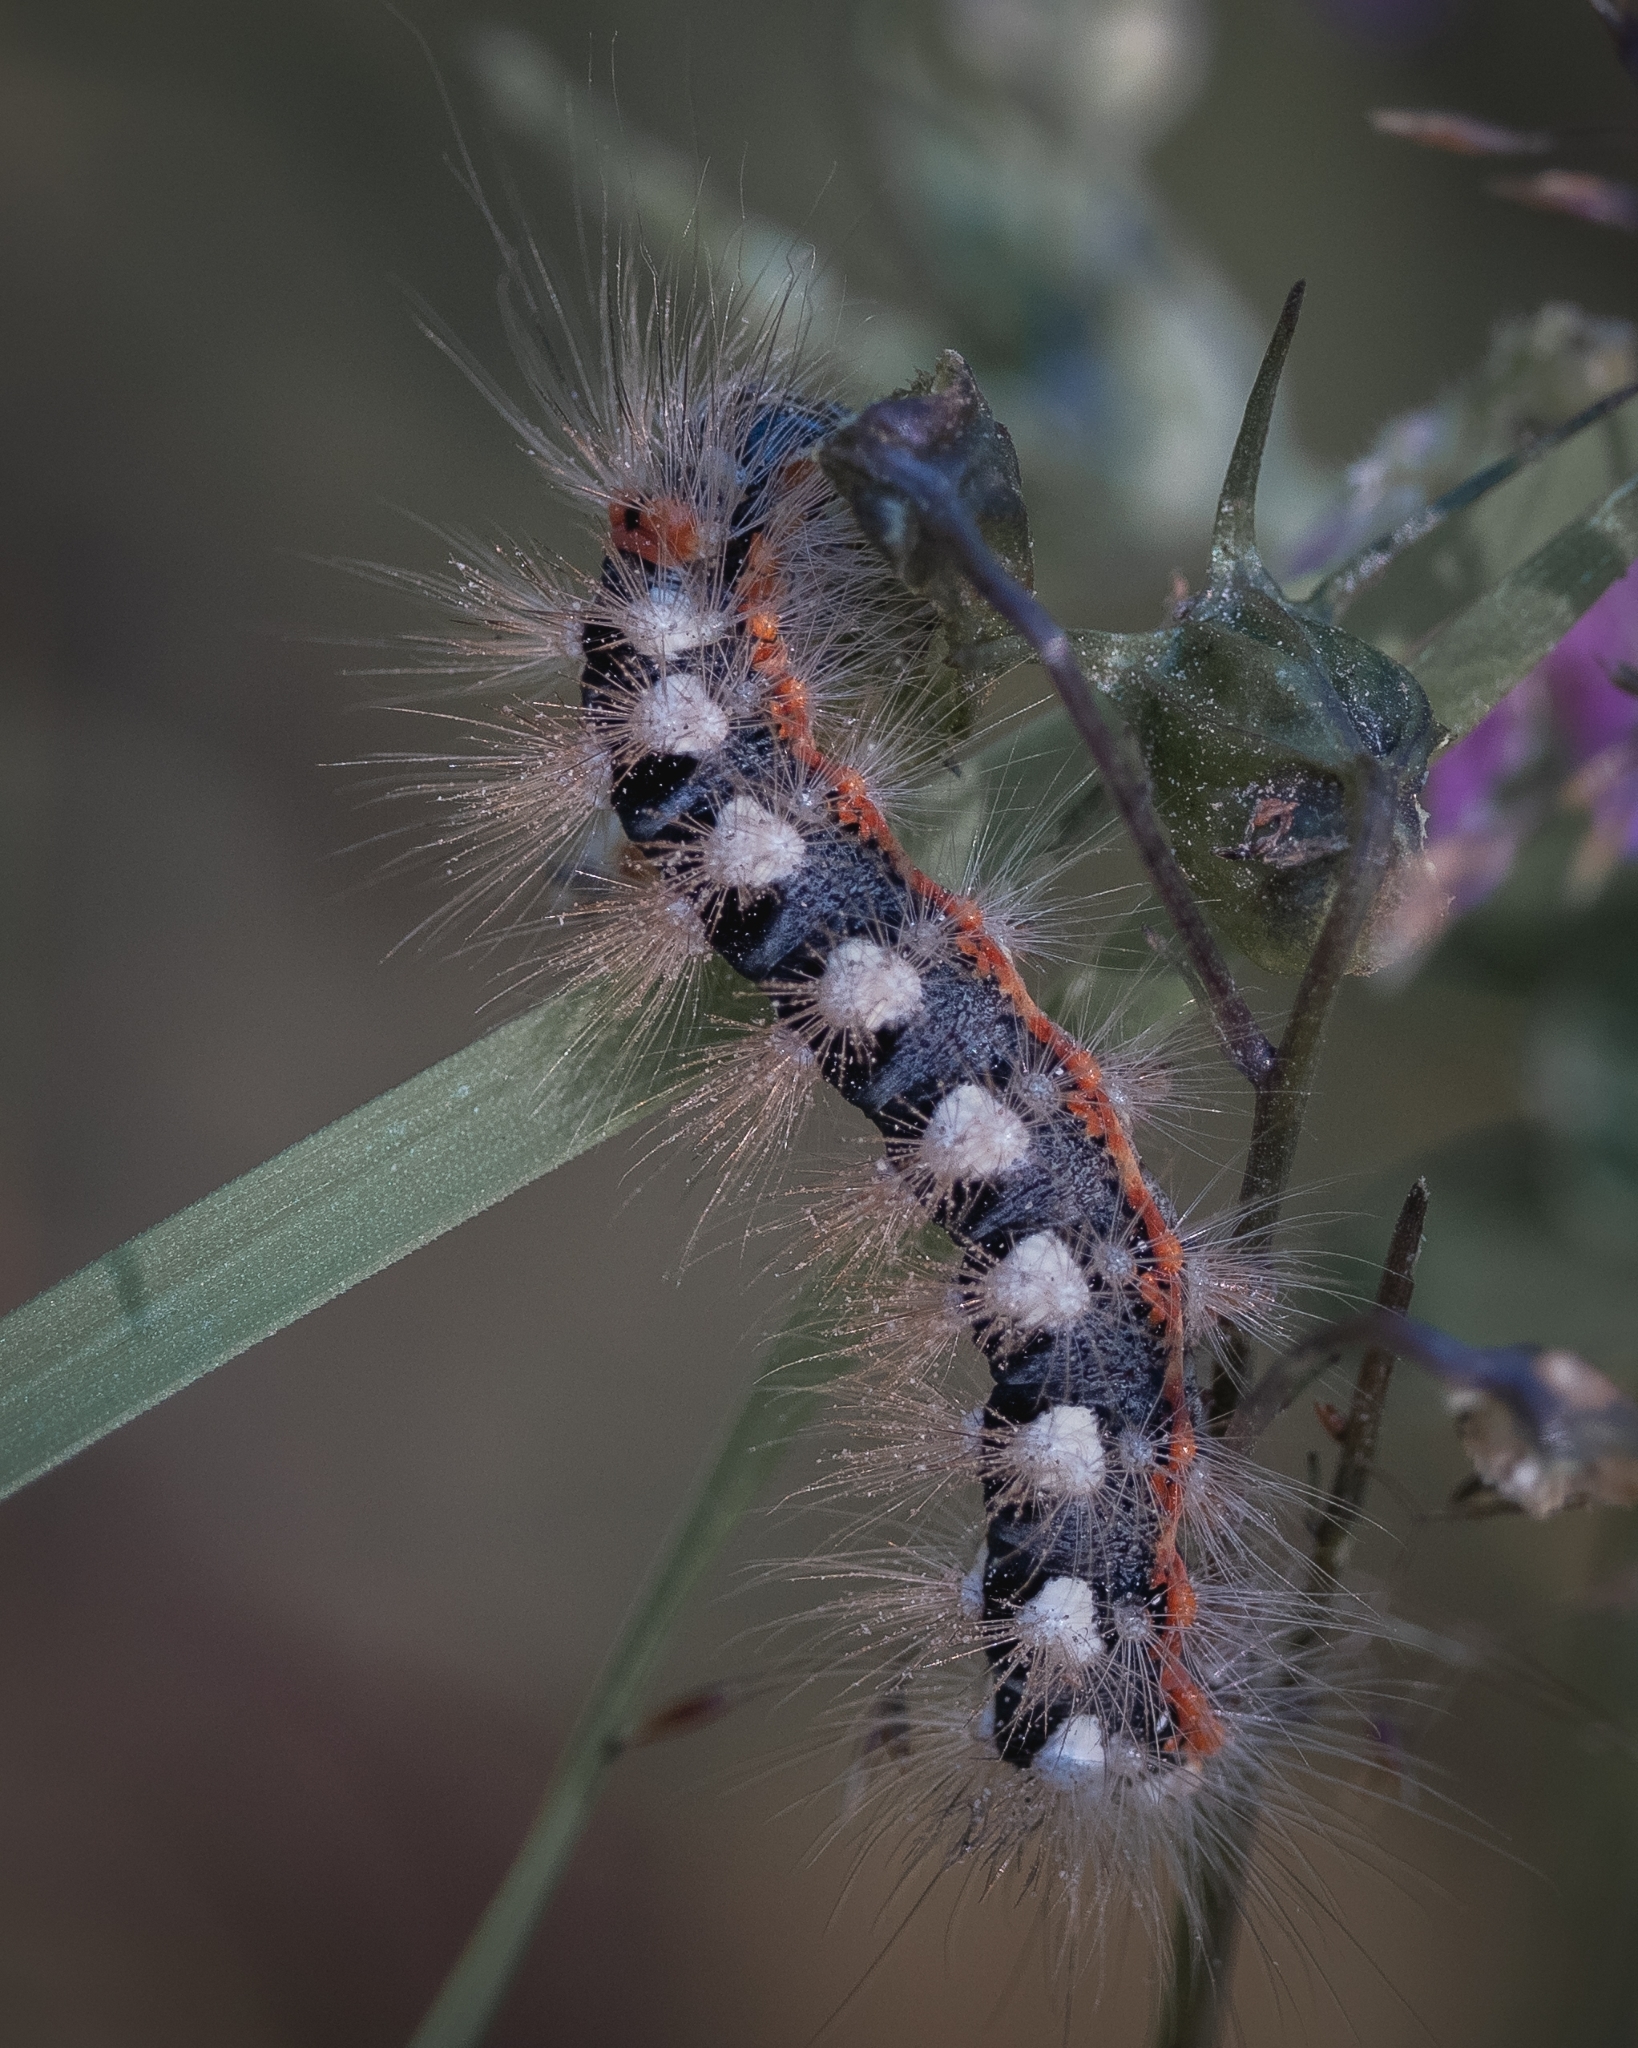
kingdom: Animalia
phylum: Arthropoda
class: Insecta
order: Lepidoptera
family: Noctuidae
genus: Acronicta
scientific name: Acronicta cinerea
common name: Sweet gale moth
